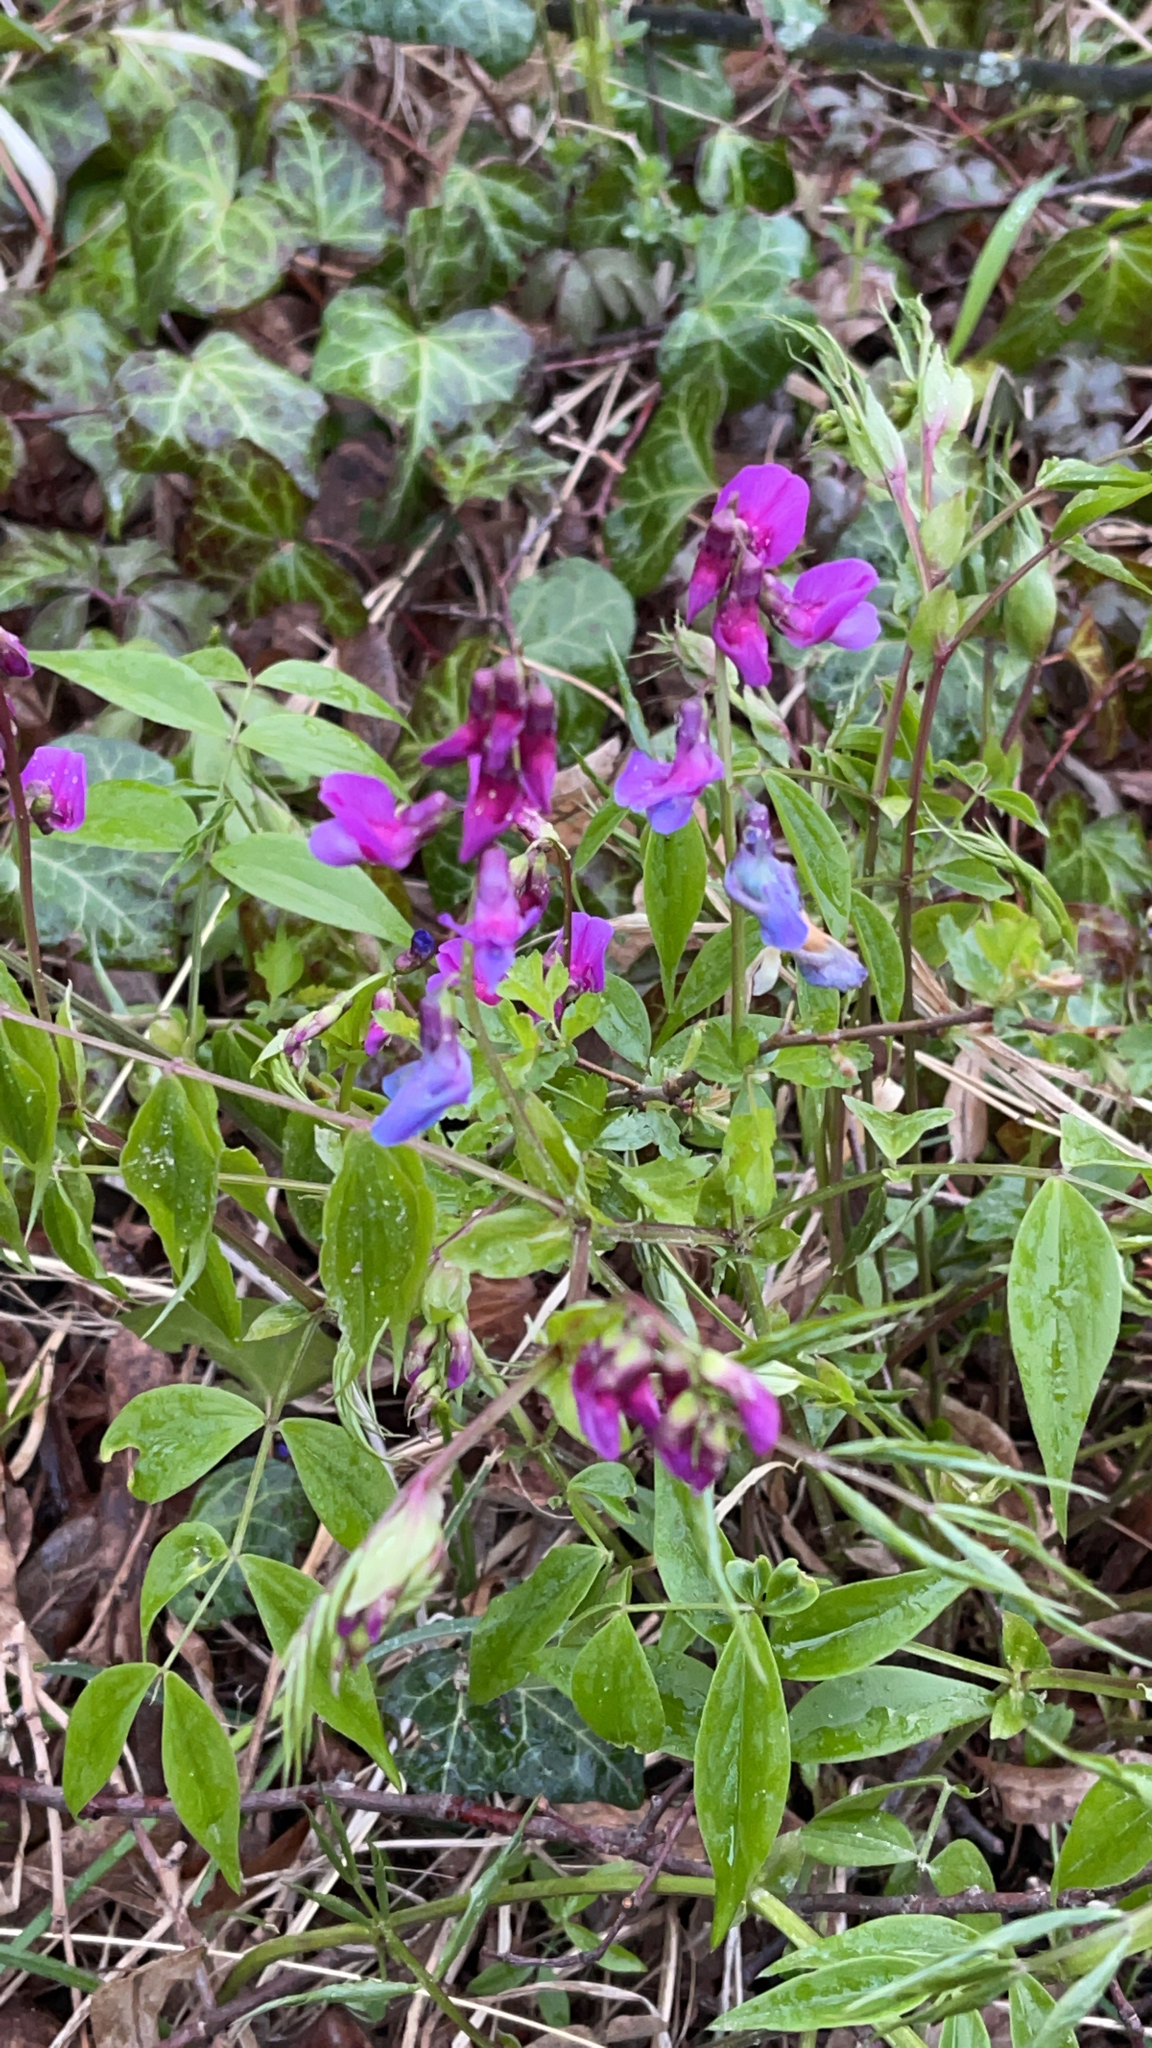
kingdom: Plantae
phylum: Tracheophyta
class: Magnoliopsida
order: Fabales
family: Fabaceae
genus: Lathyrus
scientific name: Lathyrus vernus
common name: Spring pea
